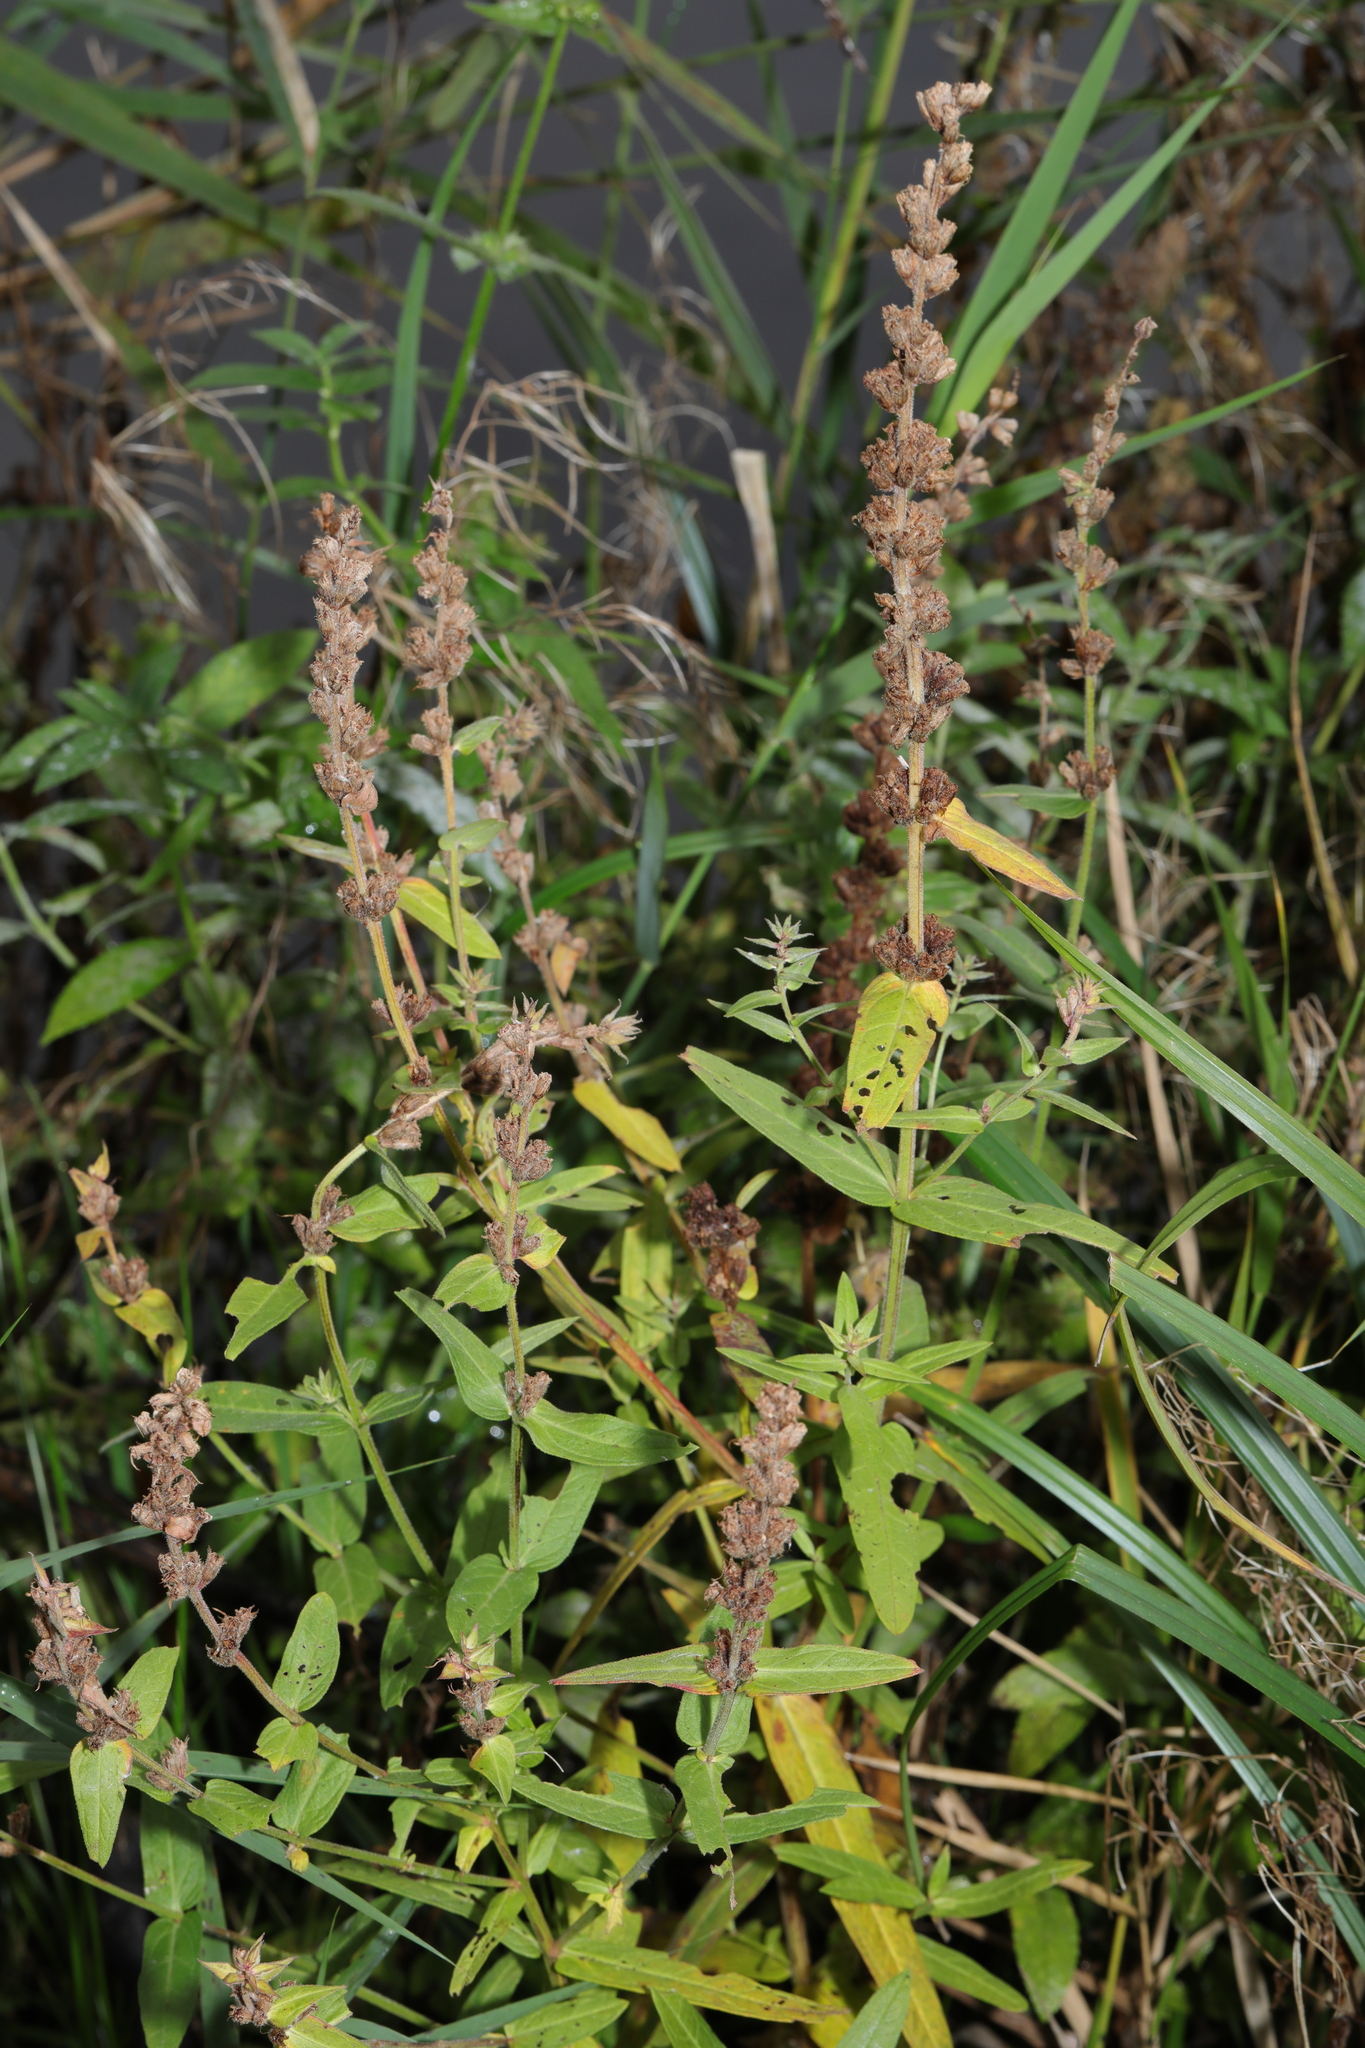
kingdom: Plantae
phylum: Tracheophyta
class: Magnoliopsida
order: Lamiales
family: Lamiaceae
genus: Stachys
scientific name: Stachys palustris
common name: Marsh woundwort
